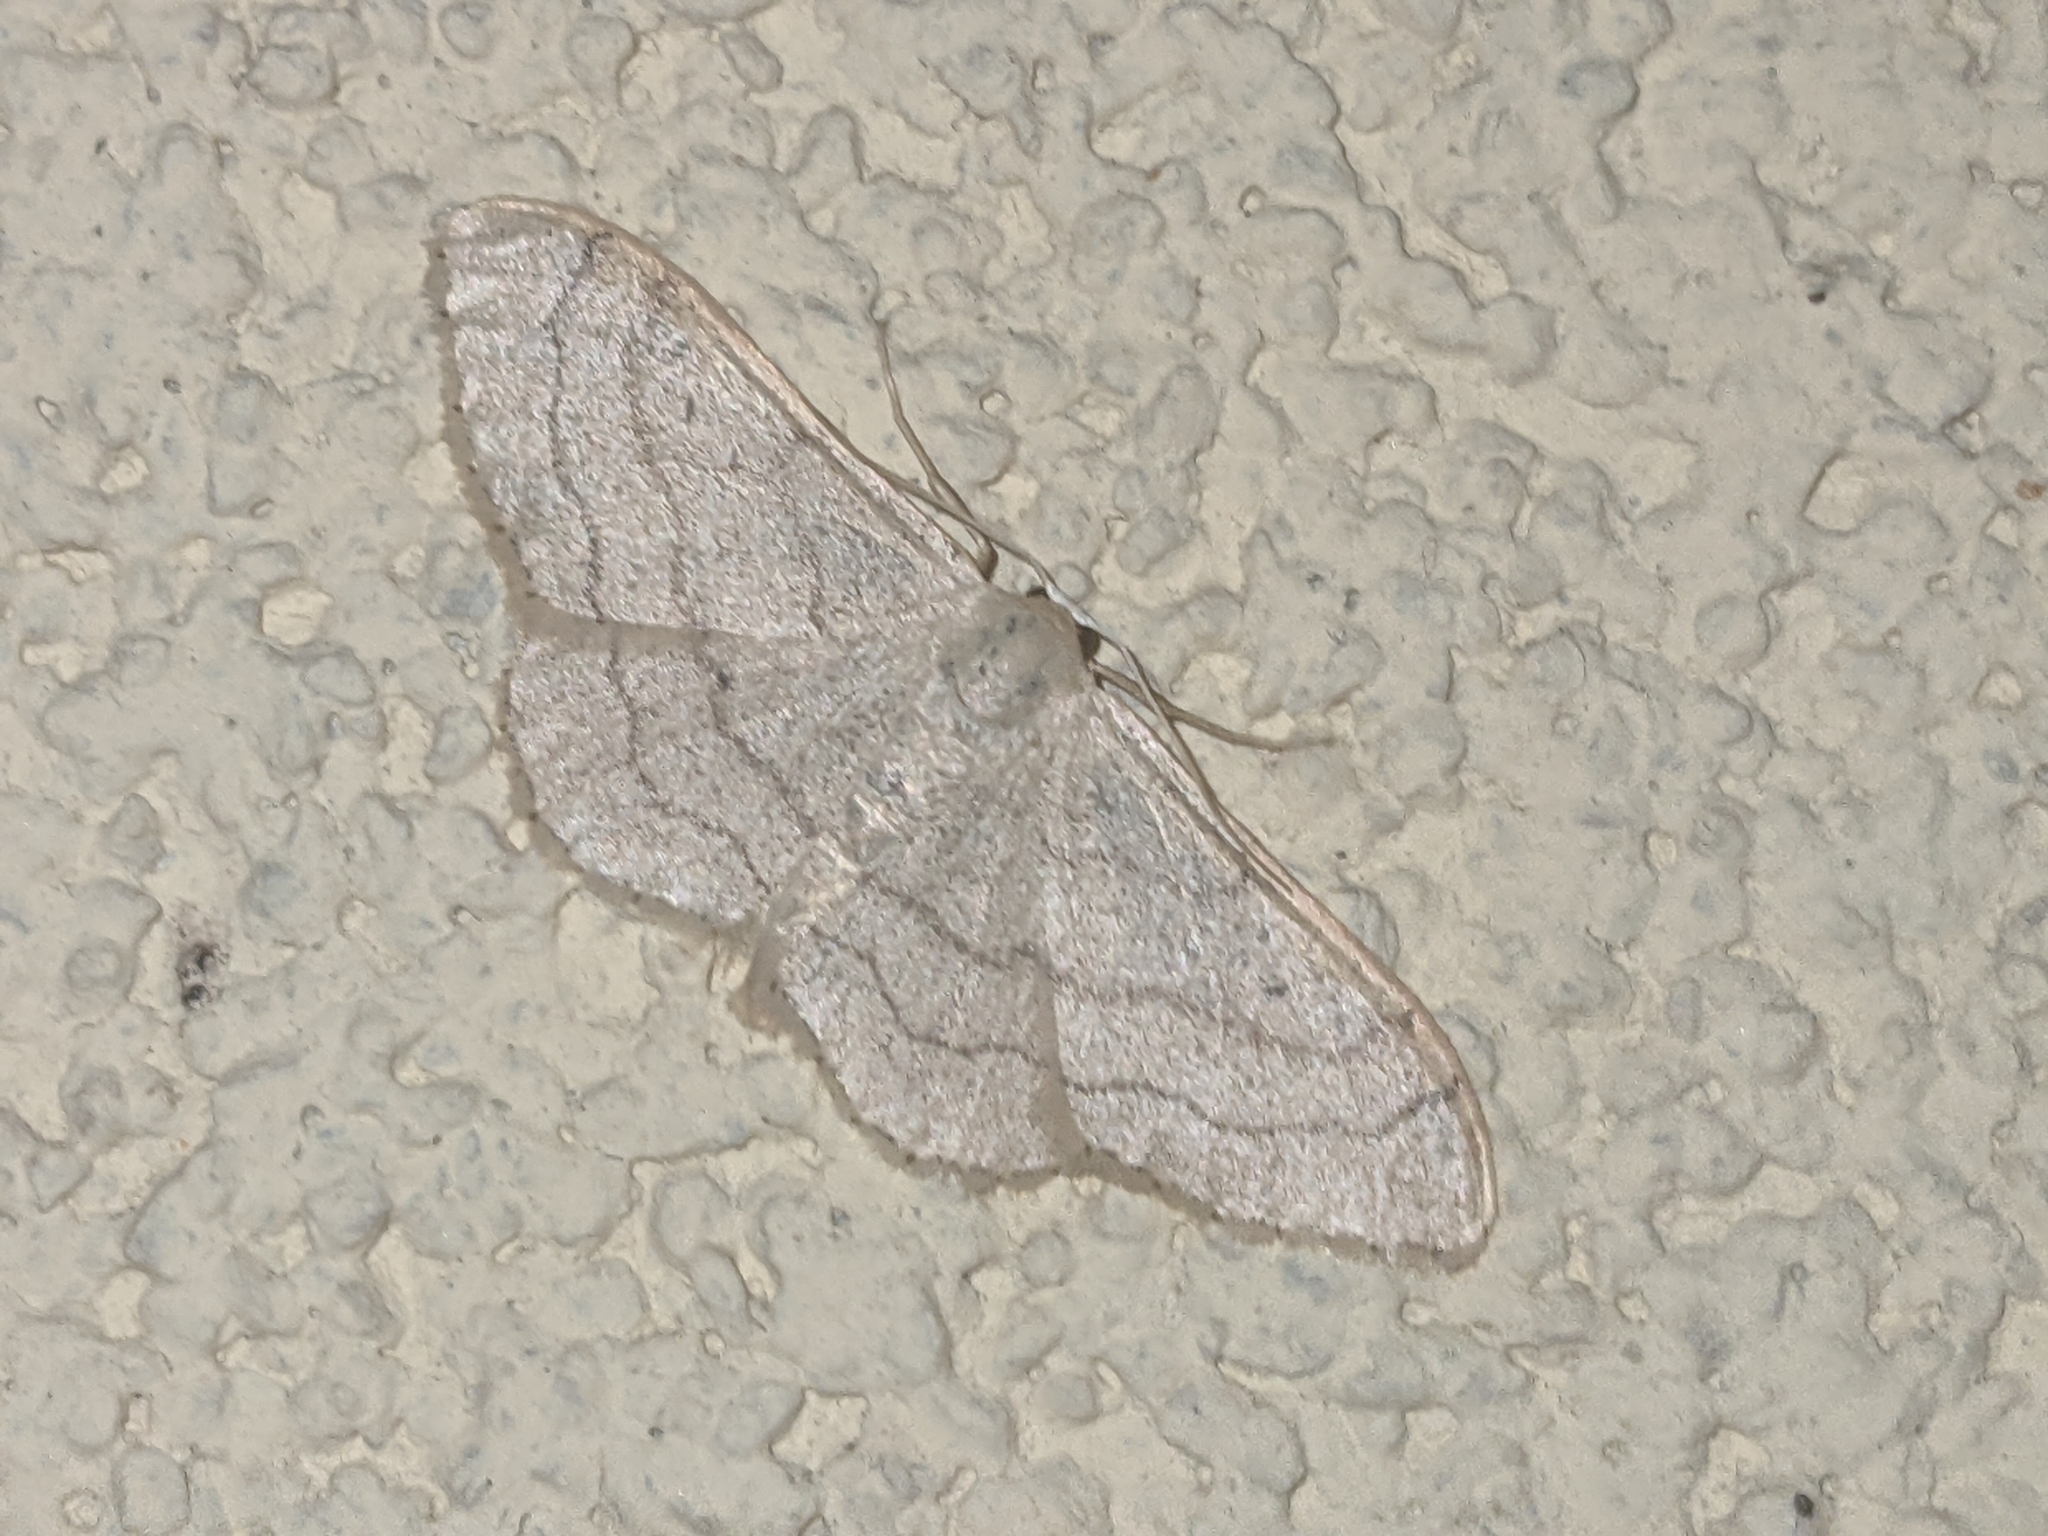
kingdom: Animalia
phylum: Arthropoda
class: Insecta
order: Lepidoptera
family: Geometridae
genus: Idaea
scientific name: Idaea aversata
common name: Riband wave
